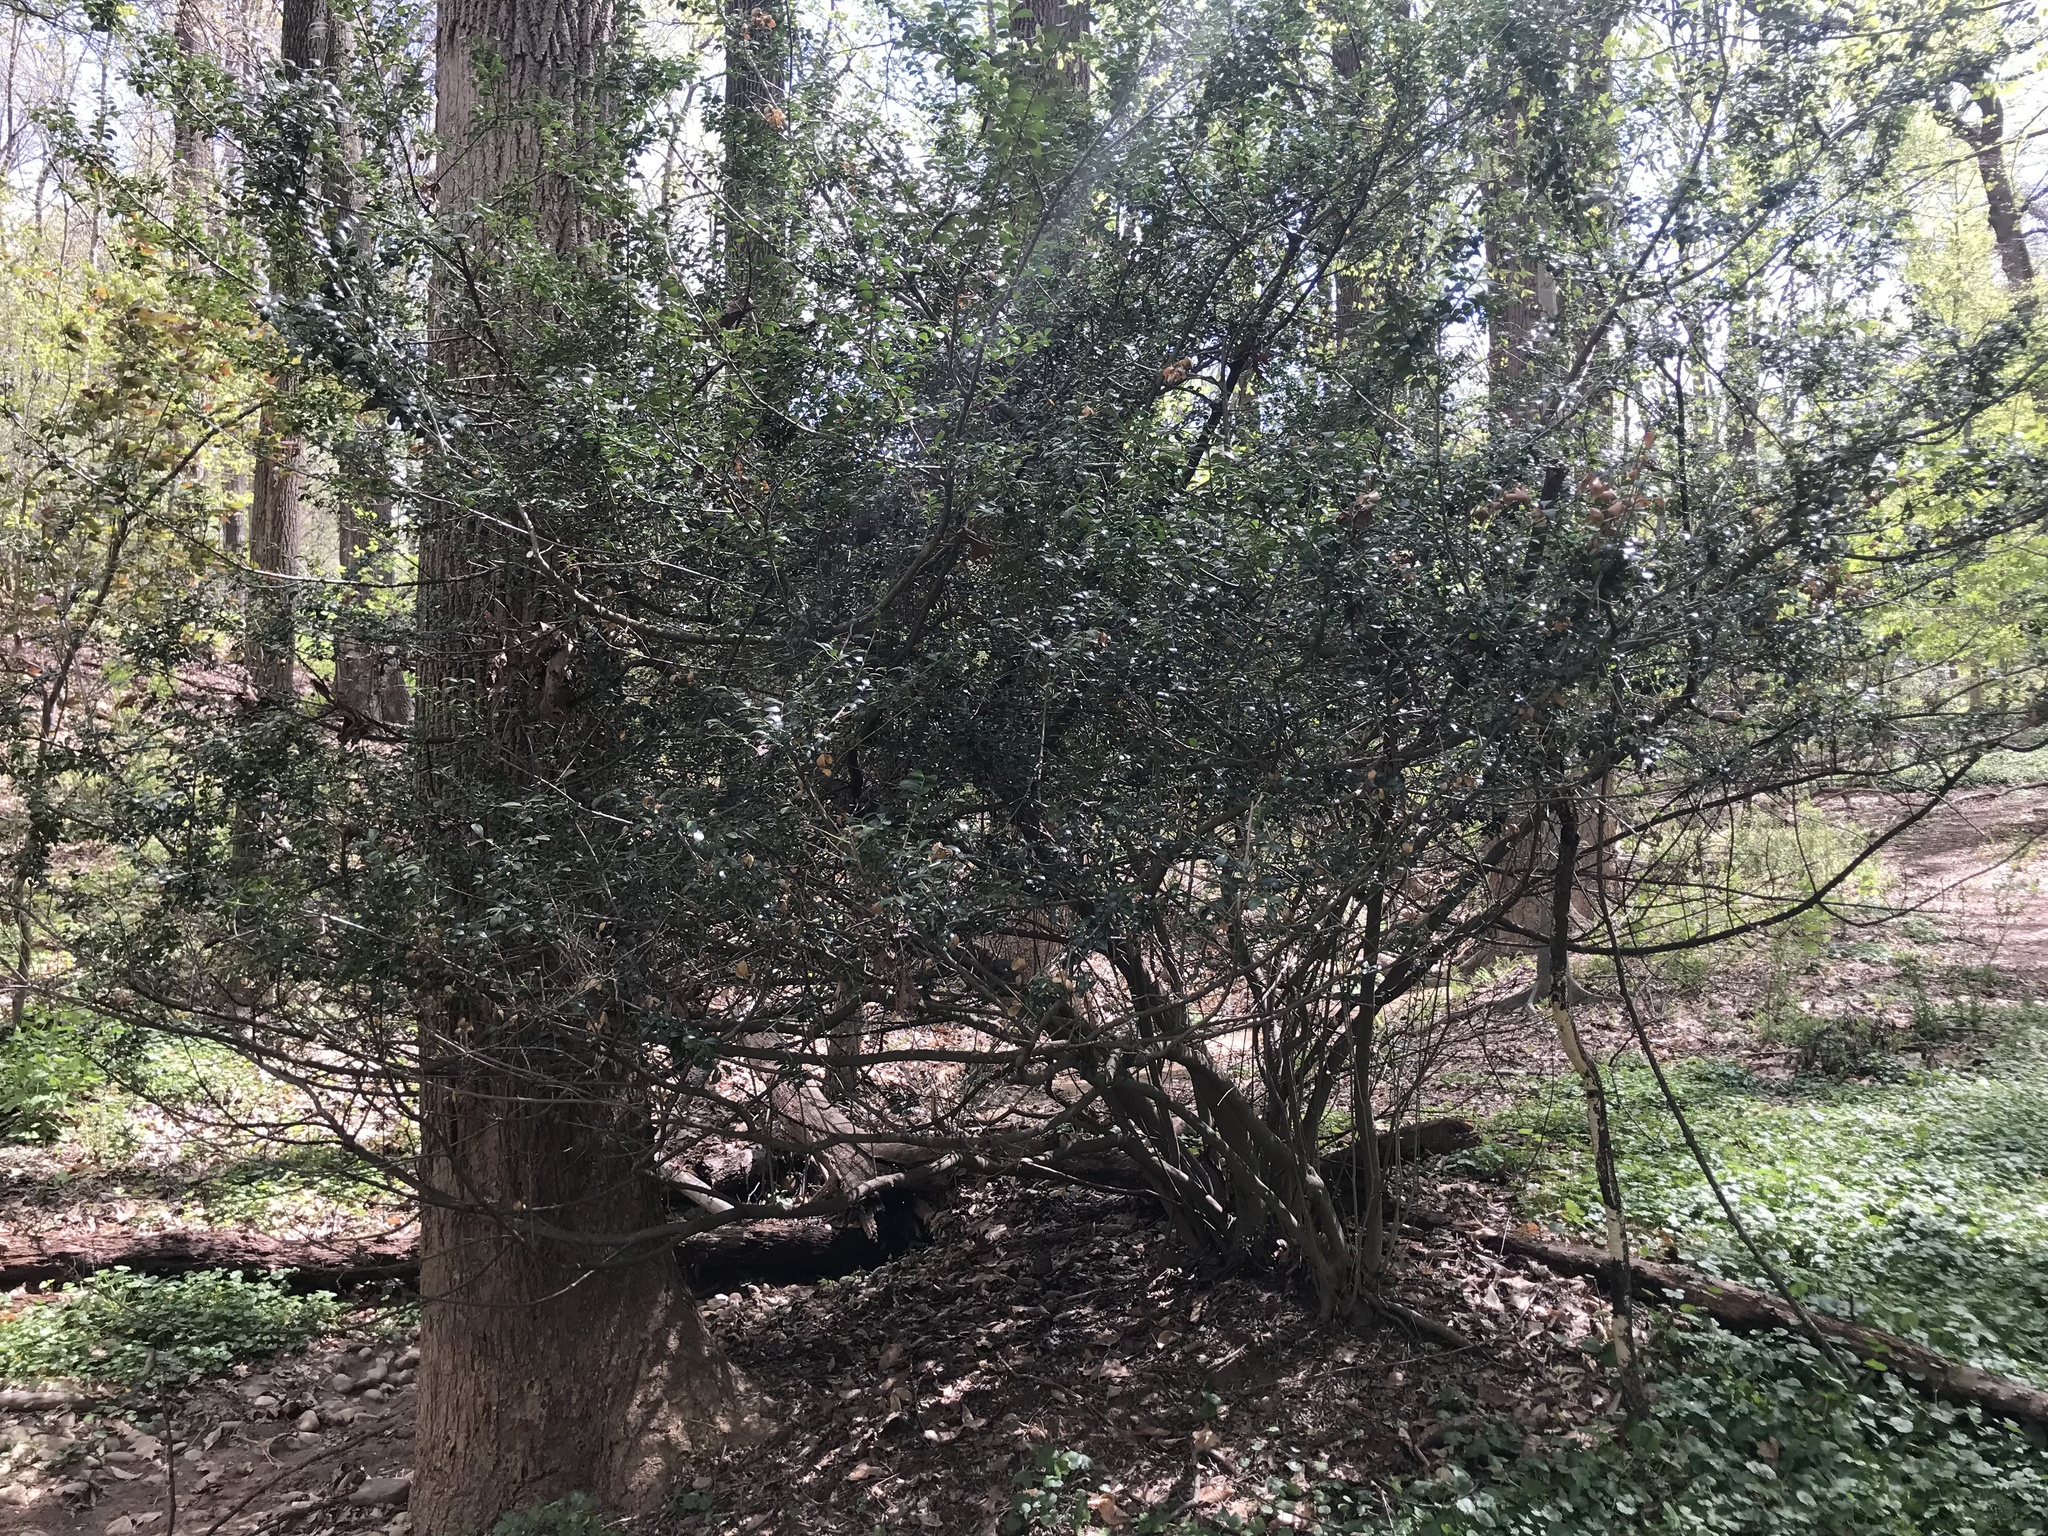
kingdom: Plantae
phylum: Tracheophyta
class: Magnoliopsida
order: Aquifoliales
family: Aquifoliaceae
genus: Ilex
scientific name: Ilex crenata
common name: Japanese holly
